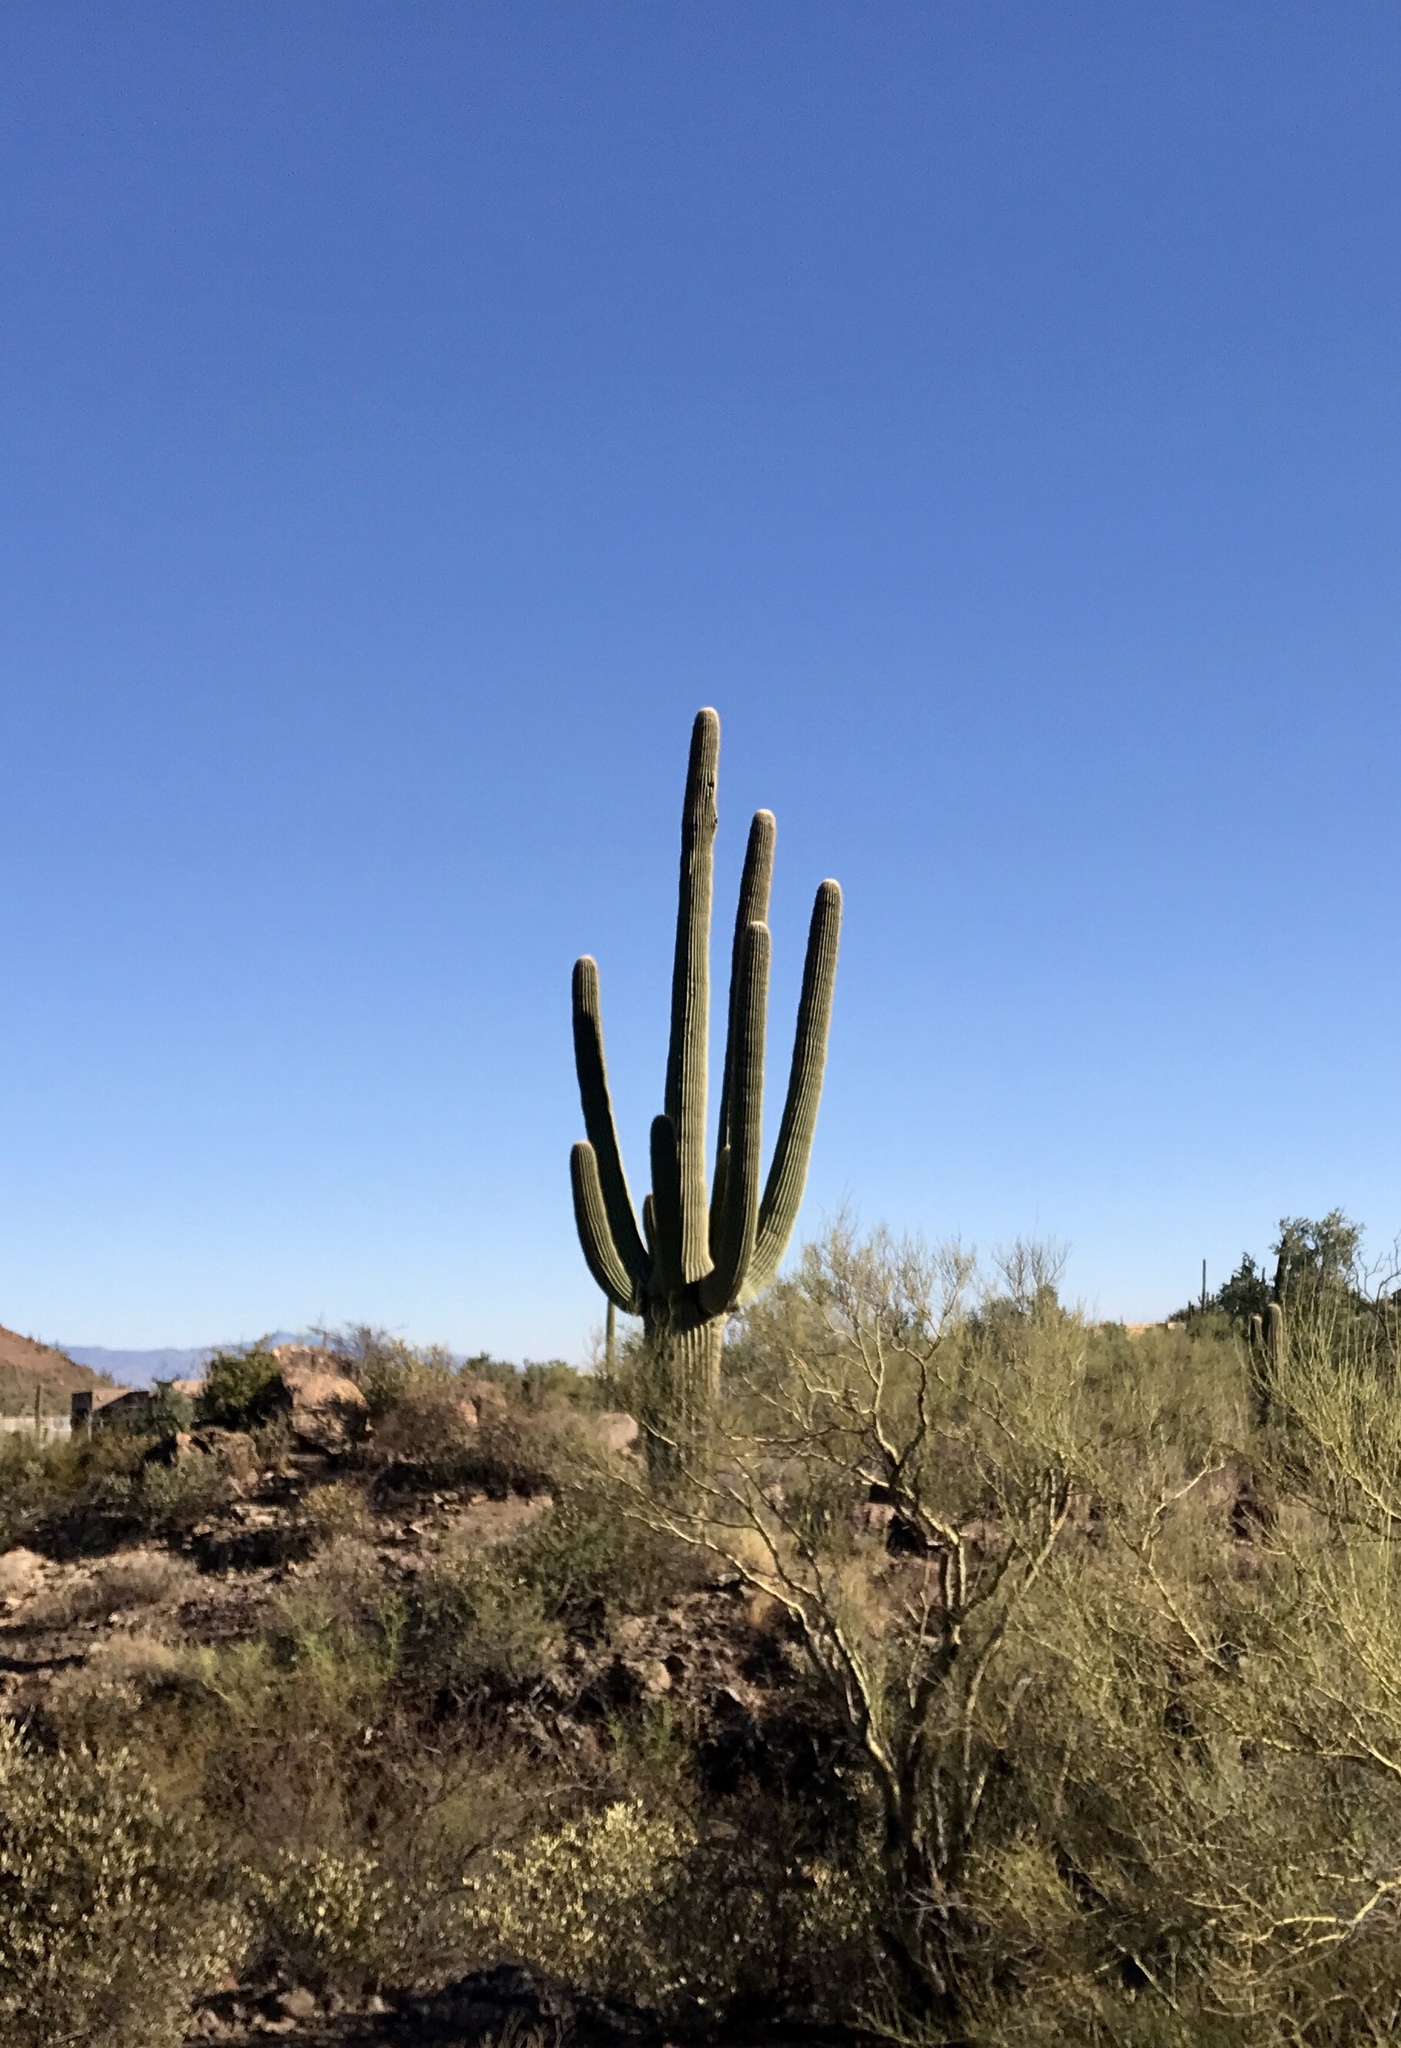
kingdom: Plantae
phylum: Tracheophyta
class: Magnoliopsida
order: Caryophyllales
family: Cactaceae
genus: Carnegiea
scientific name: Carnegiea gigantea
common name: Saguaro
